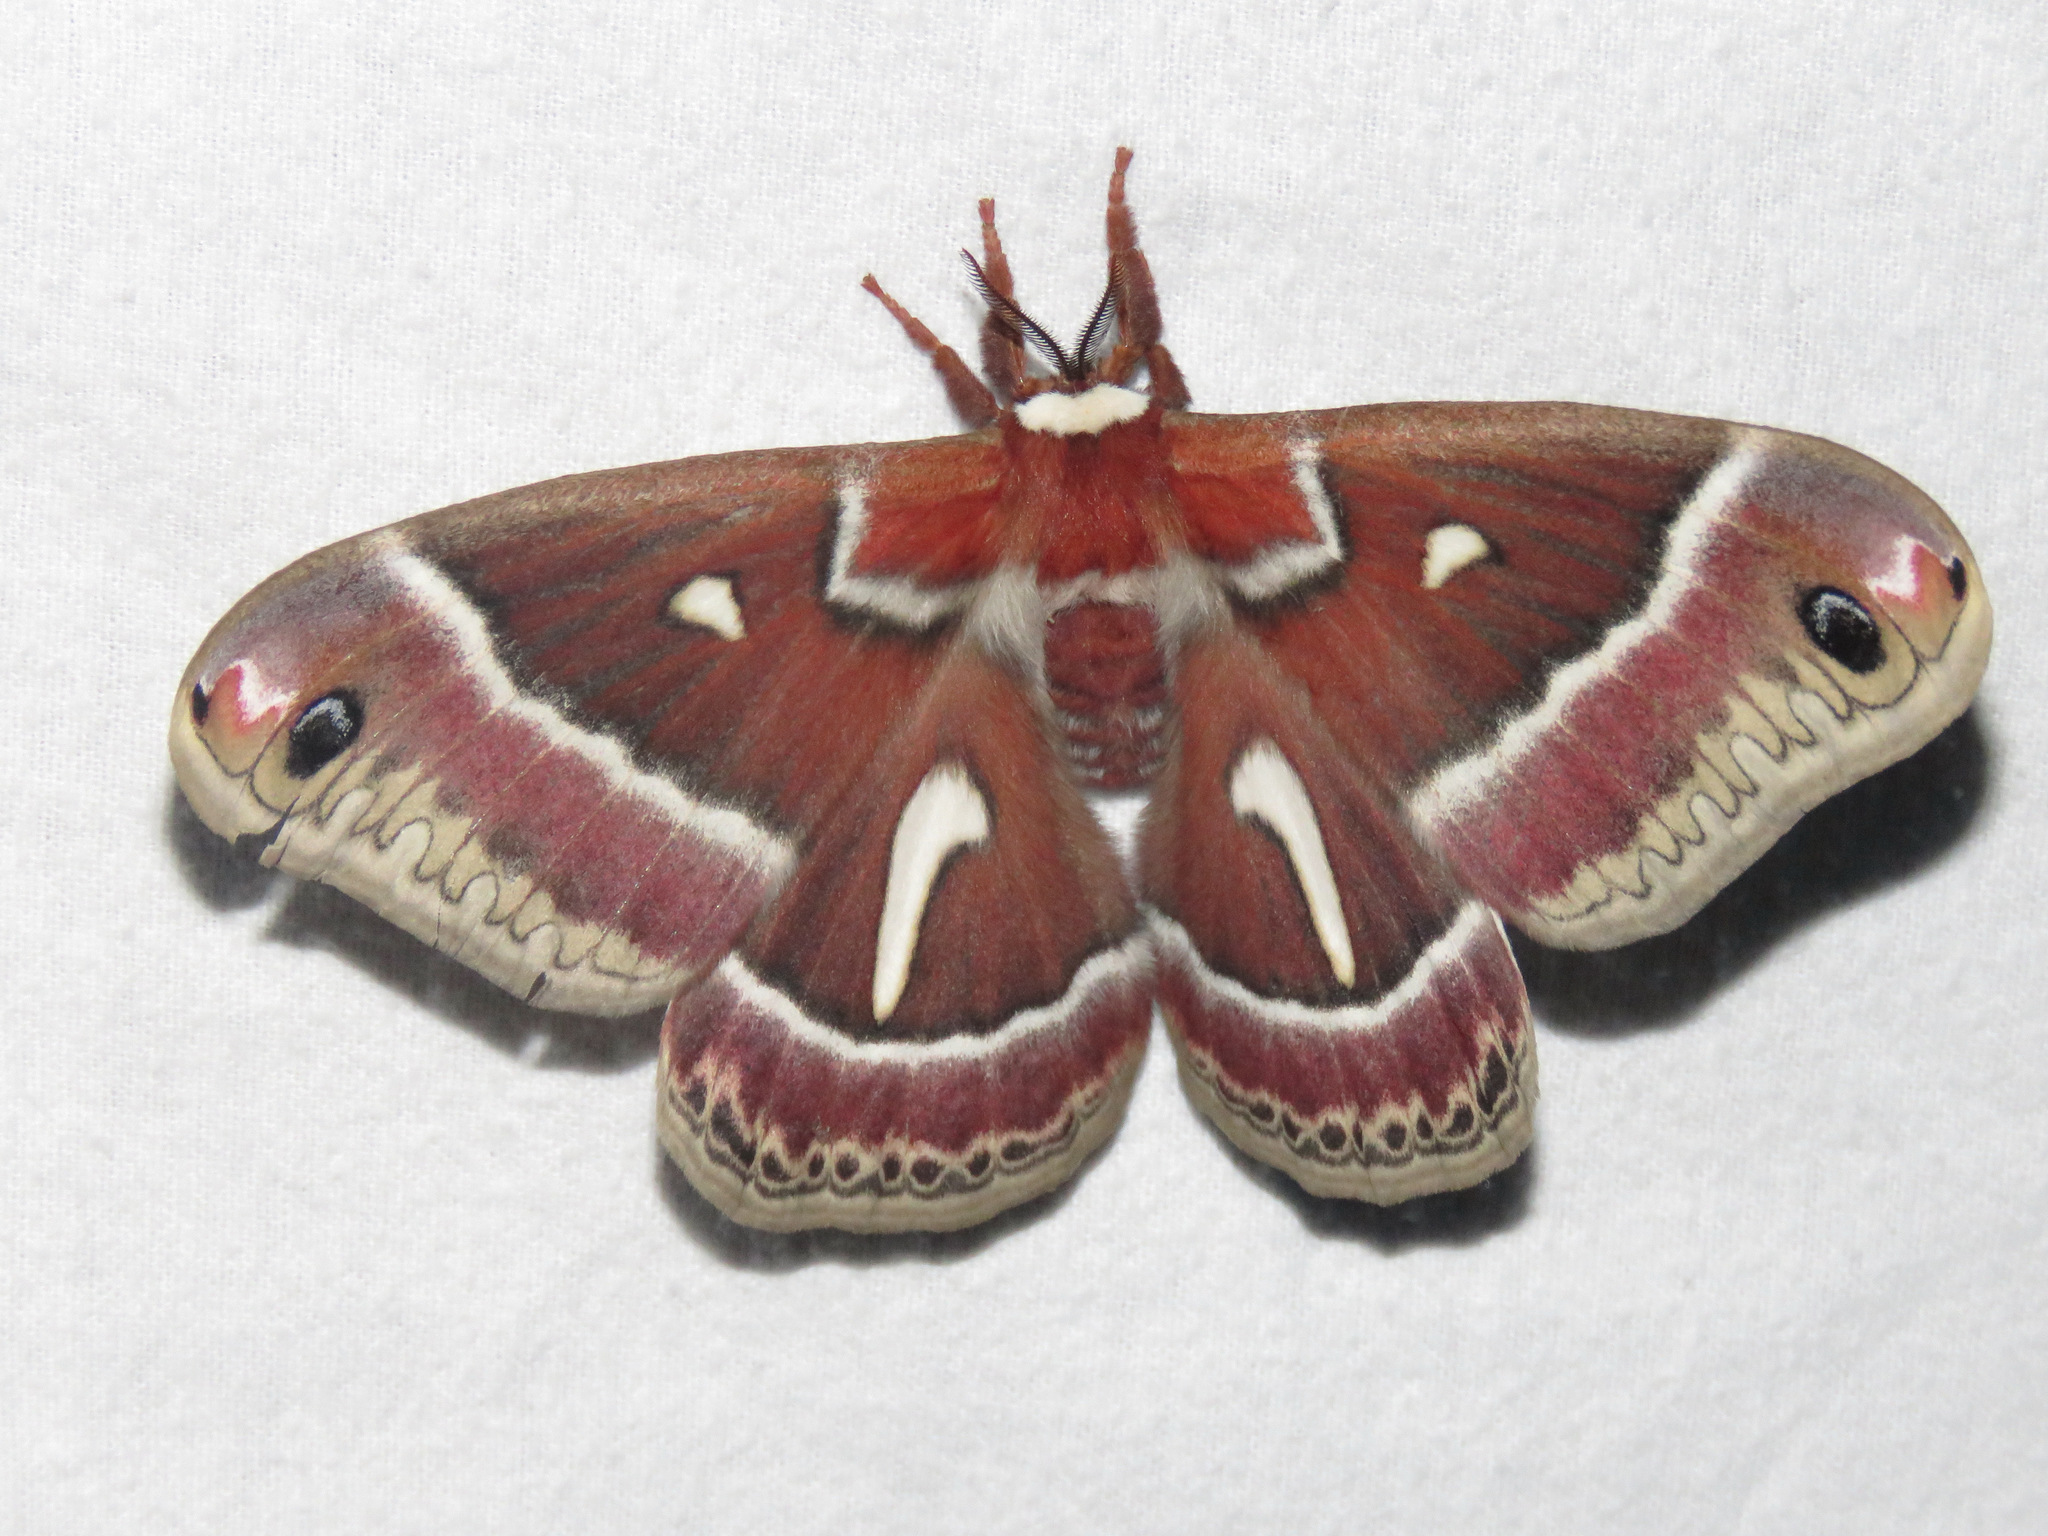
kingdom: Animalia
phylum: Arthropoda
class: Insecta
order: Lepidoptera
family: Saturniidae
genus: Hyalophora
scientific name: Hyalophora euryalus
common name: Ceanothus silkmoth
